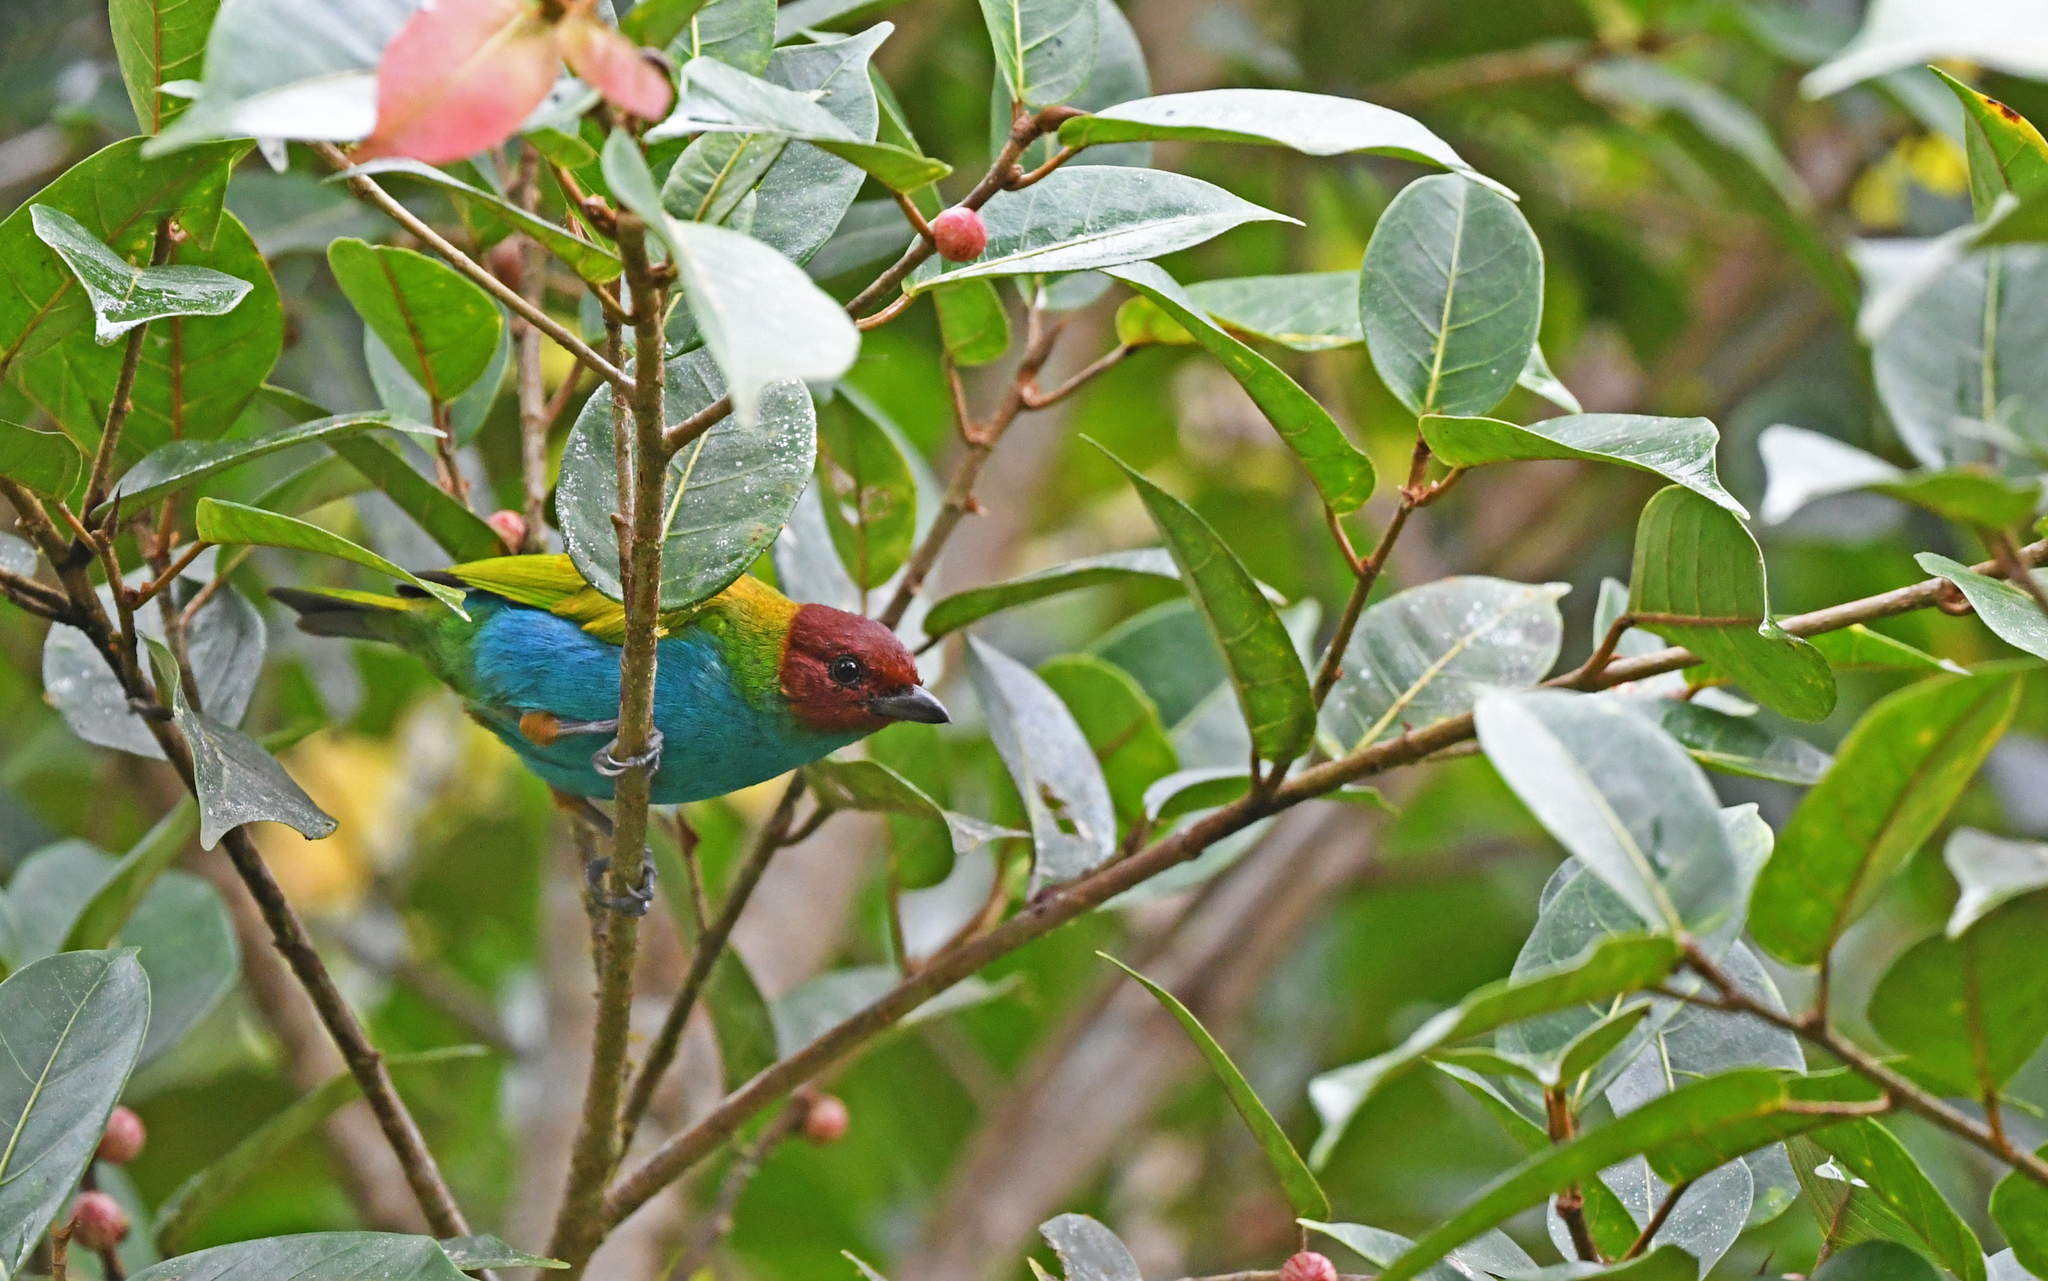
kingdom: Animalia
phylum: Chordata
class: Aves
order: Passeriformes
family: Thraupidae
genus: Tangara
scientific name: Tangara gyrola
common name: Bay-headed tanager
